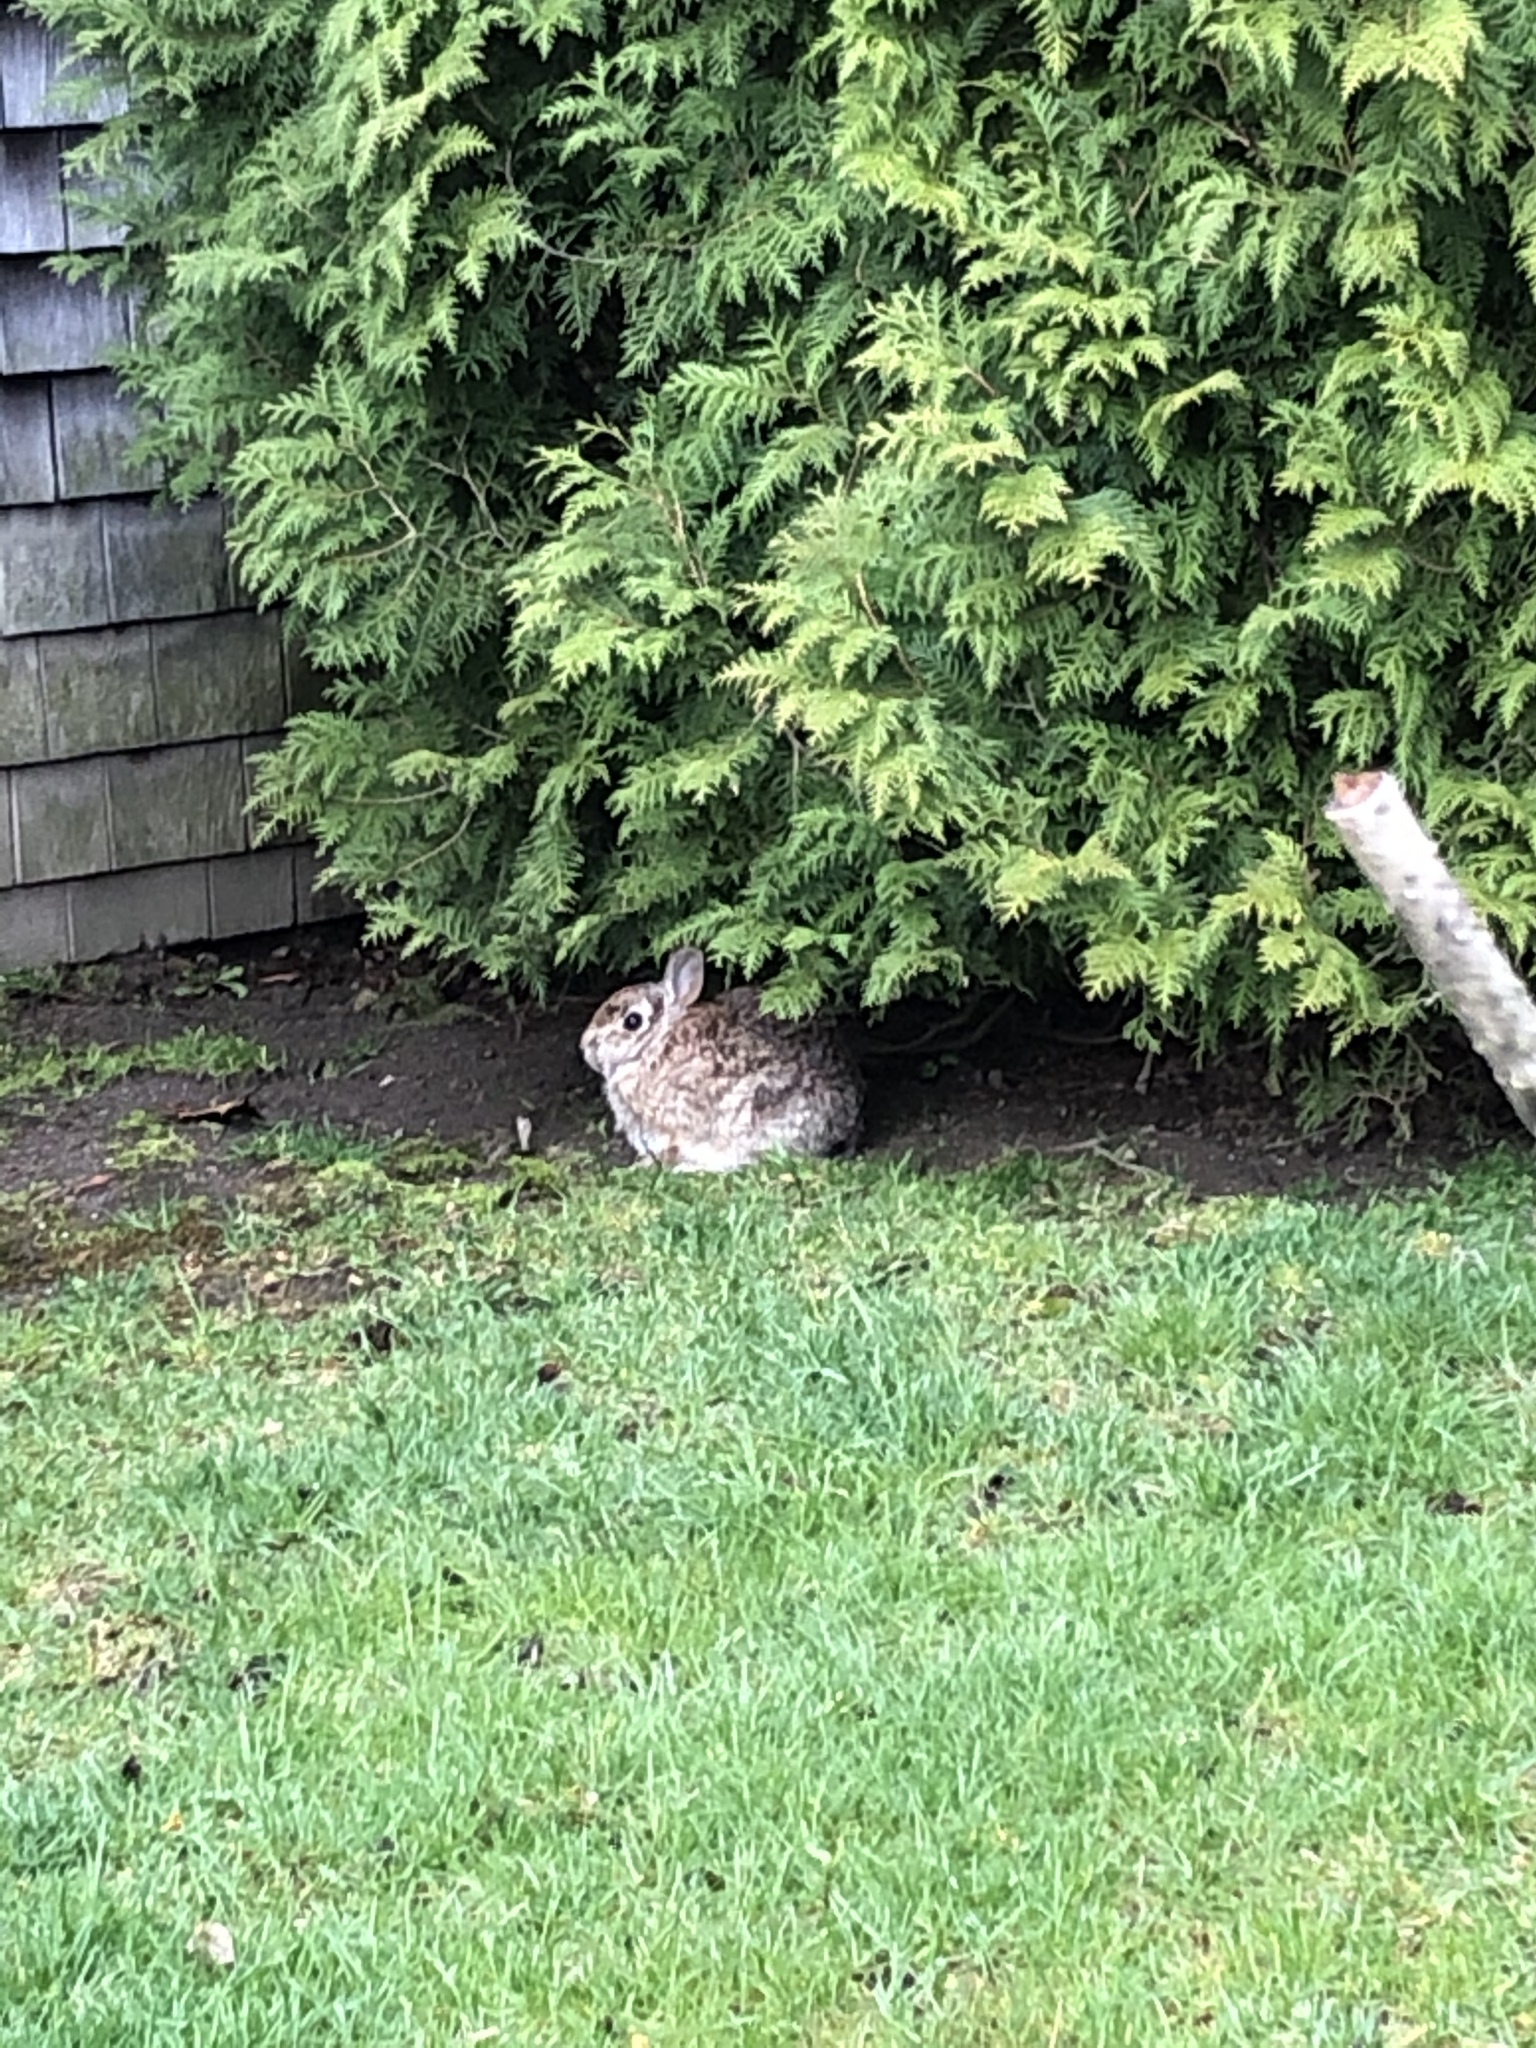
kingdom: Animalia
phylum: Chordata
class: Mammalia
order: Lagomorpha
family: Leporidae
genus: Sylvilagus
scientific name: Sylvilagus floridanus
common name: Eastern cottontail
